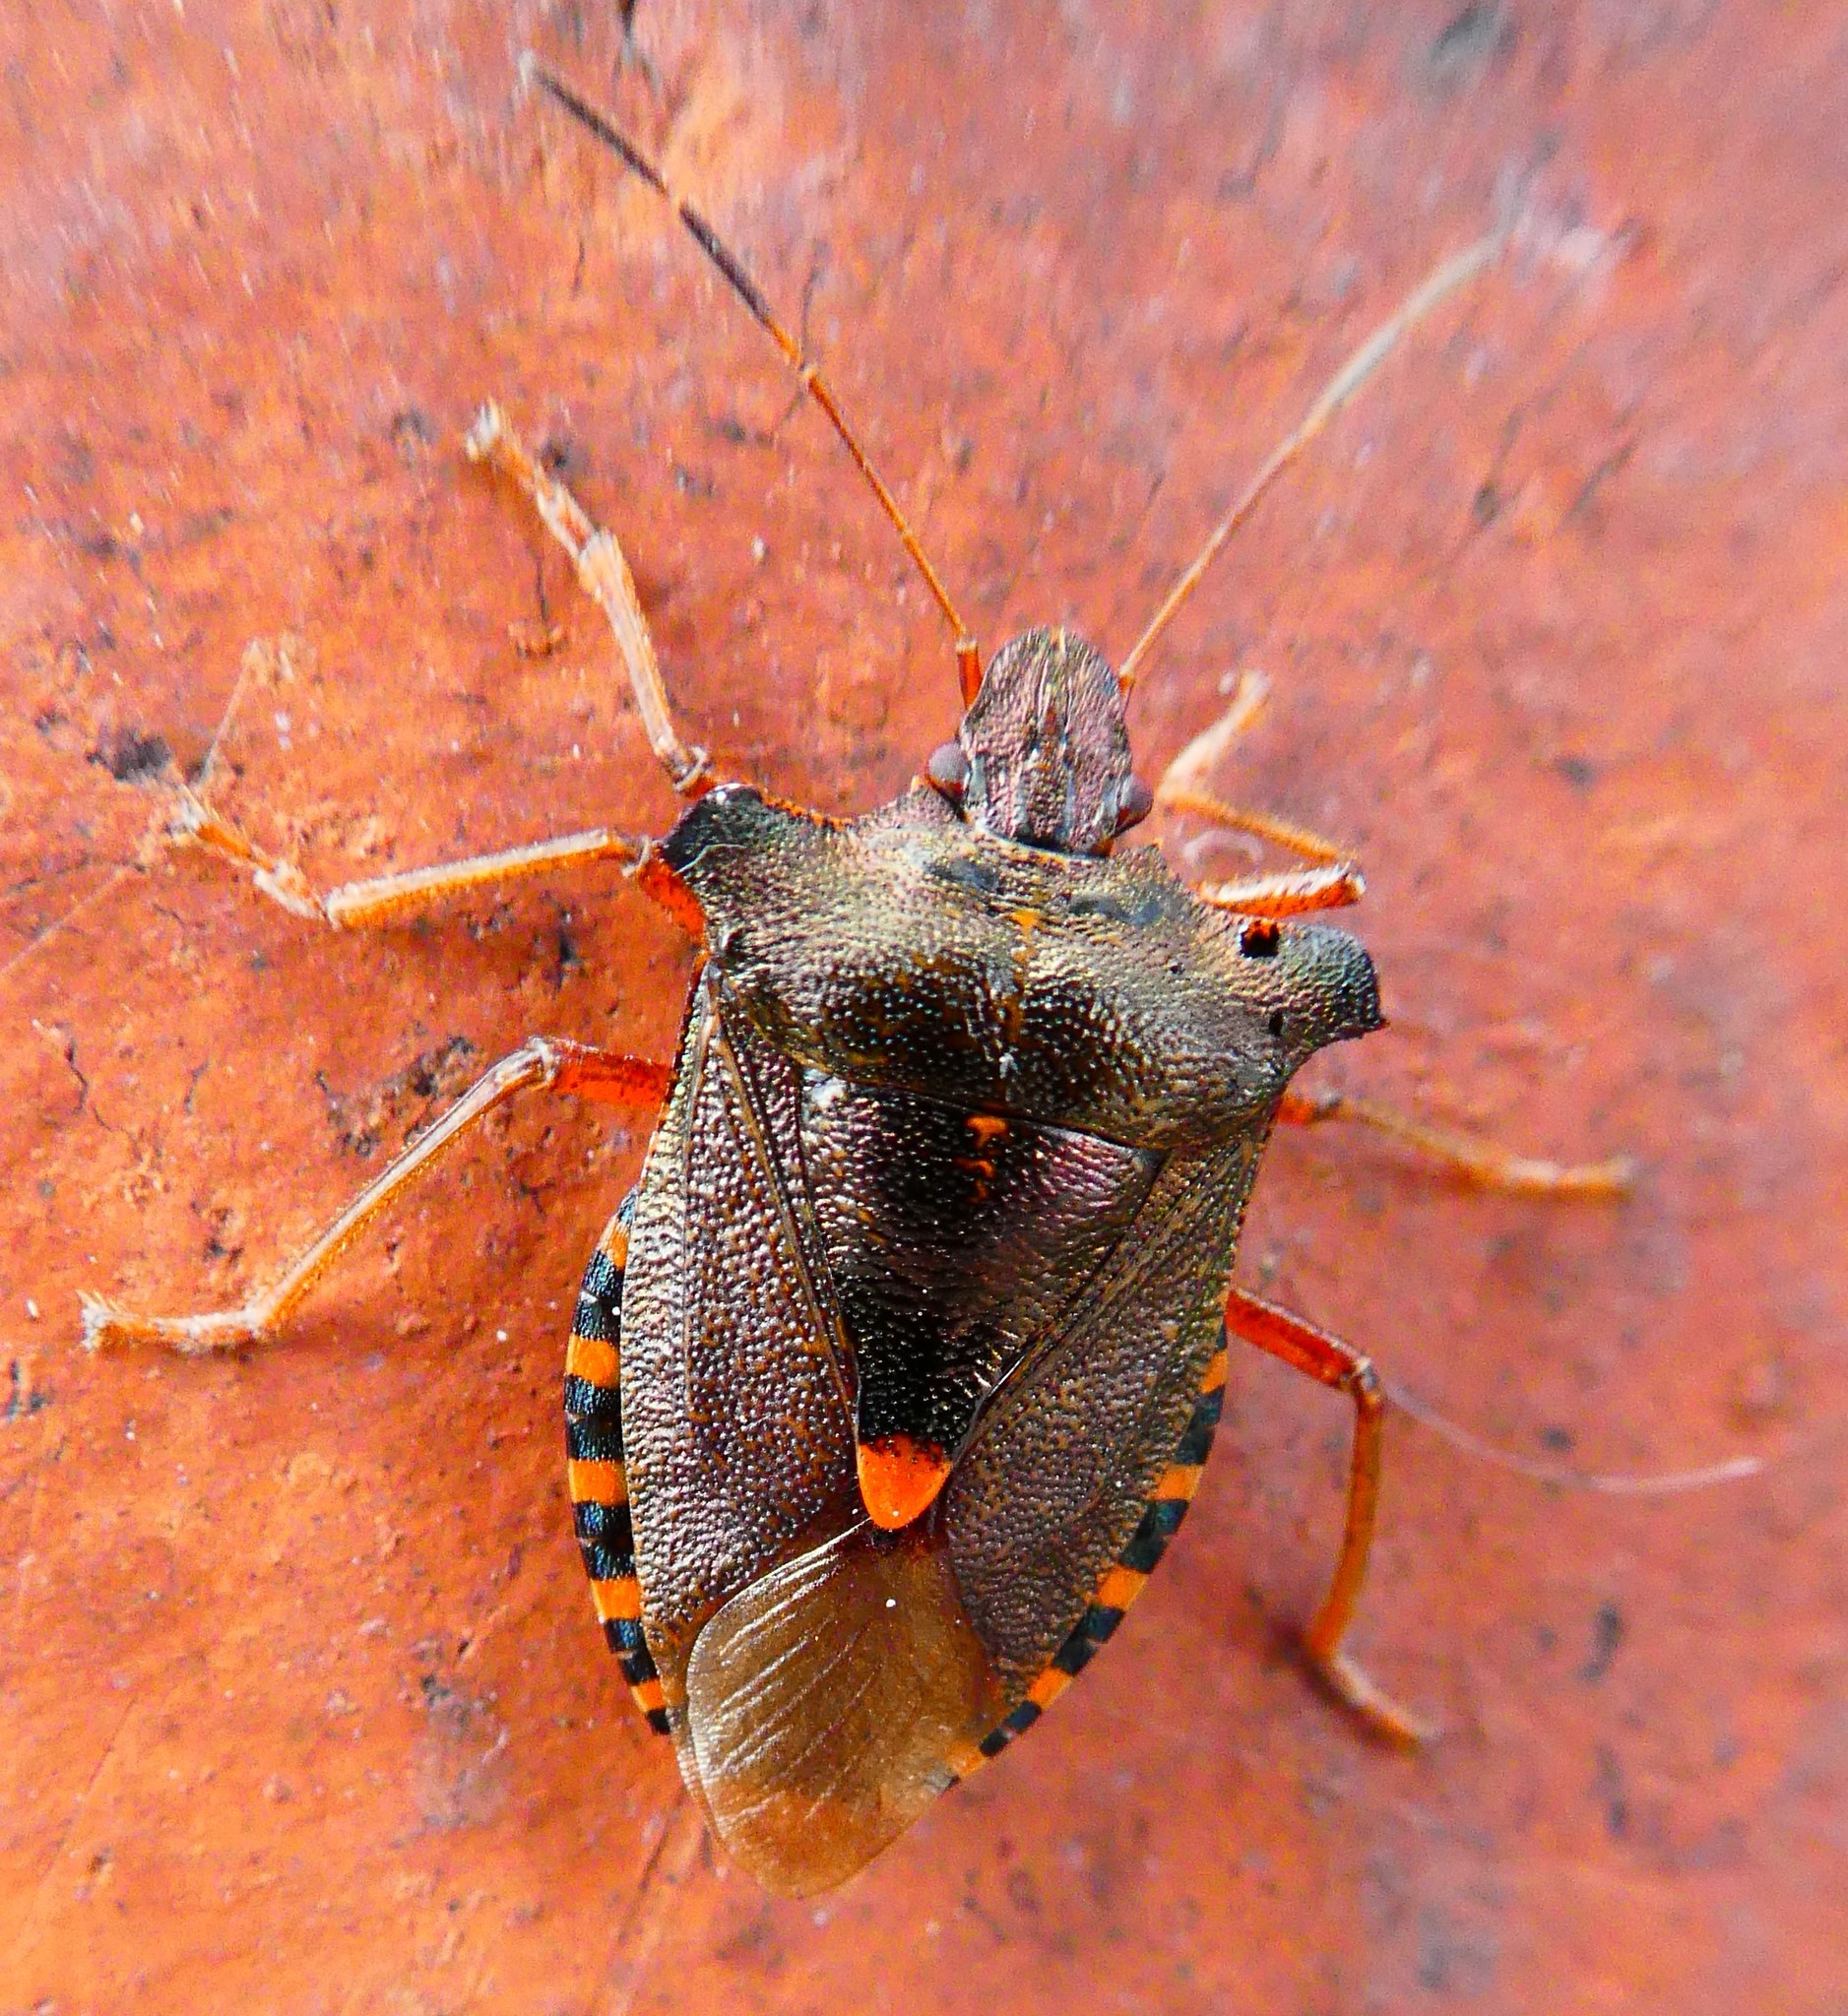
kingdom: Animalia
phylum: Arthropoda
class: Insecta
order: Hemiptera
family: Pentatomidae
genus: Pentatoma
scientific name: Pentatoma rufipes
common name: Forest bug
